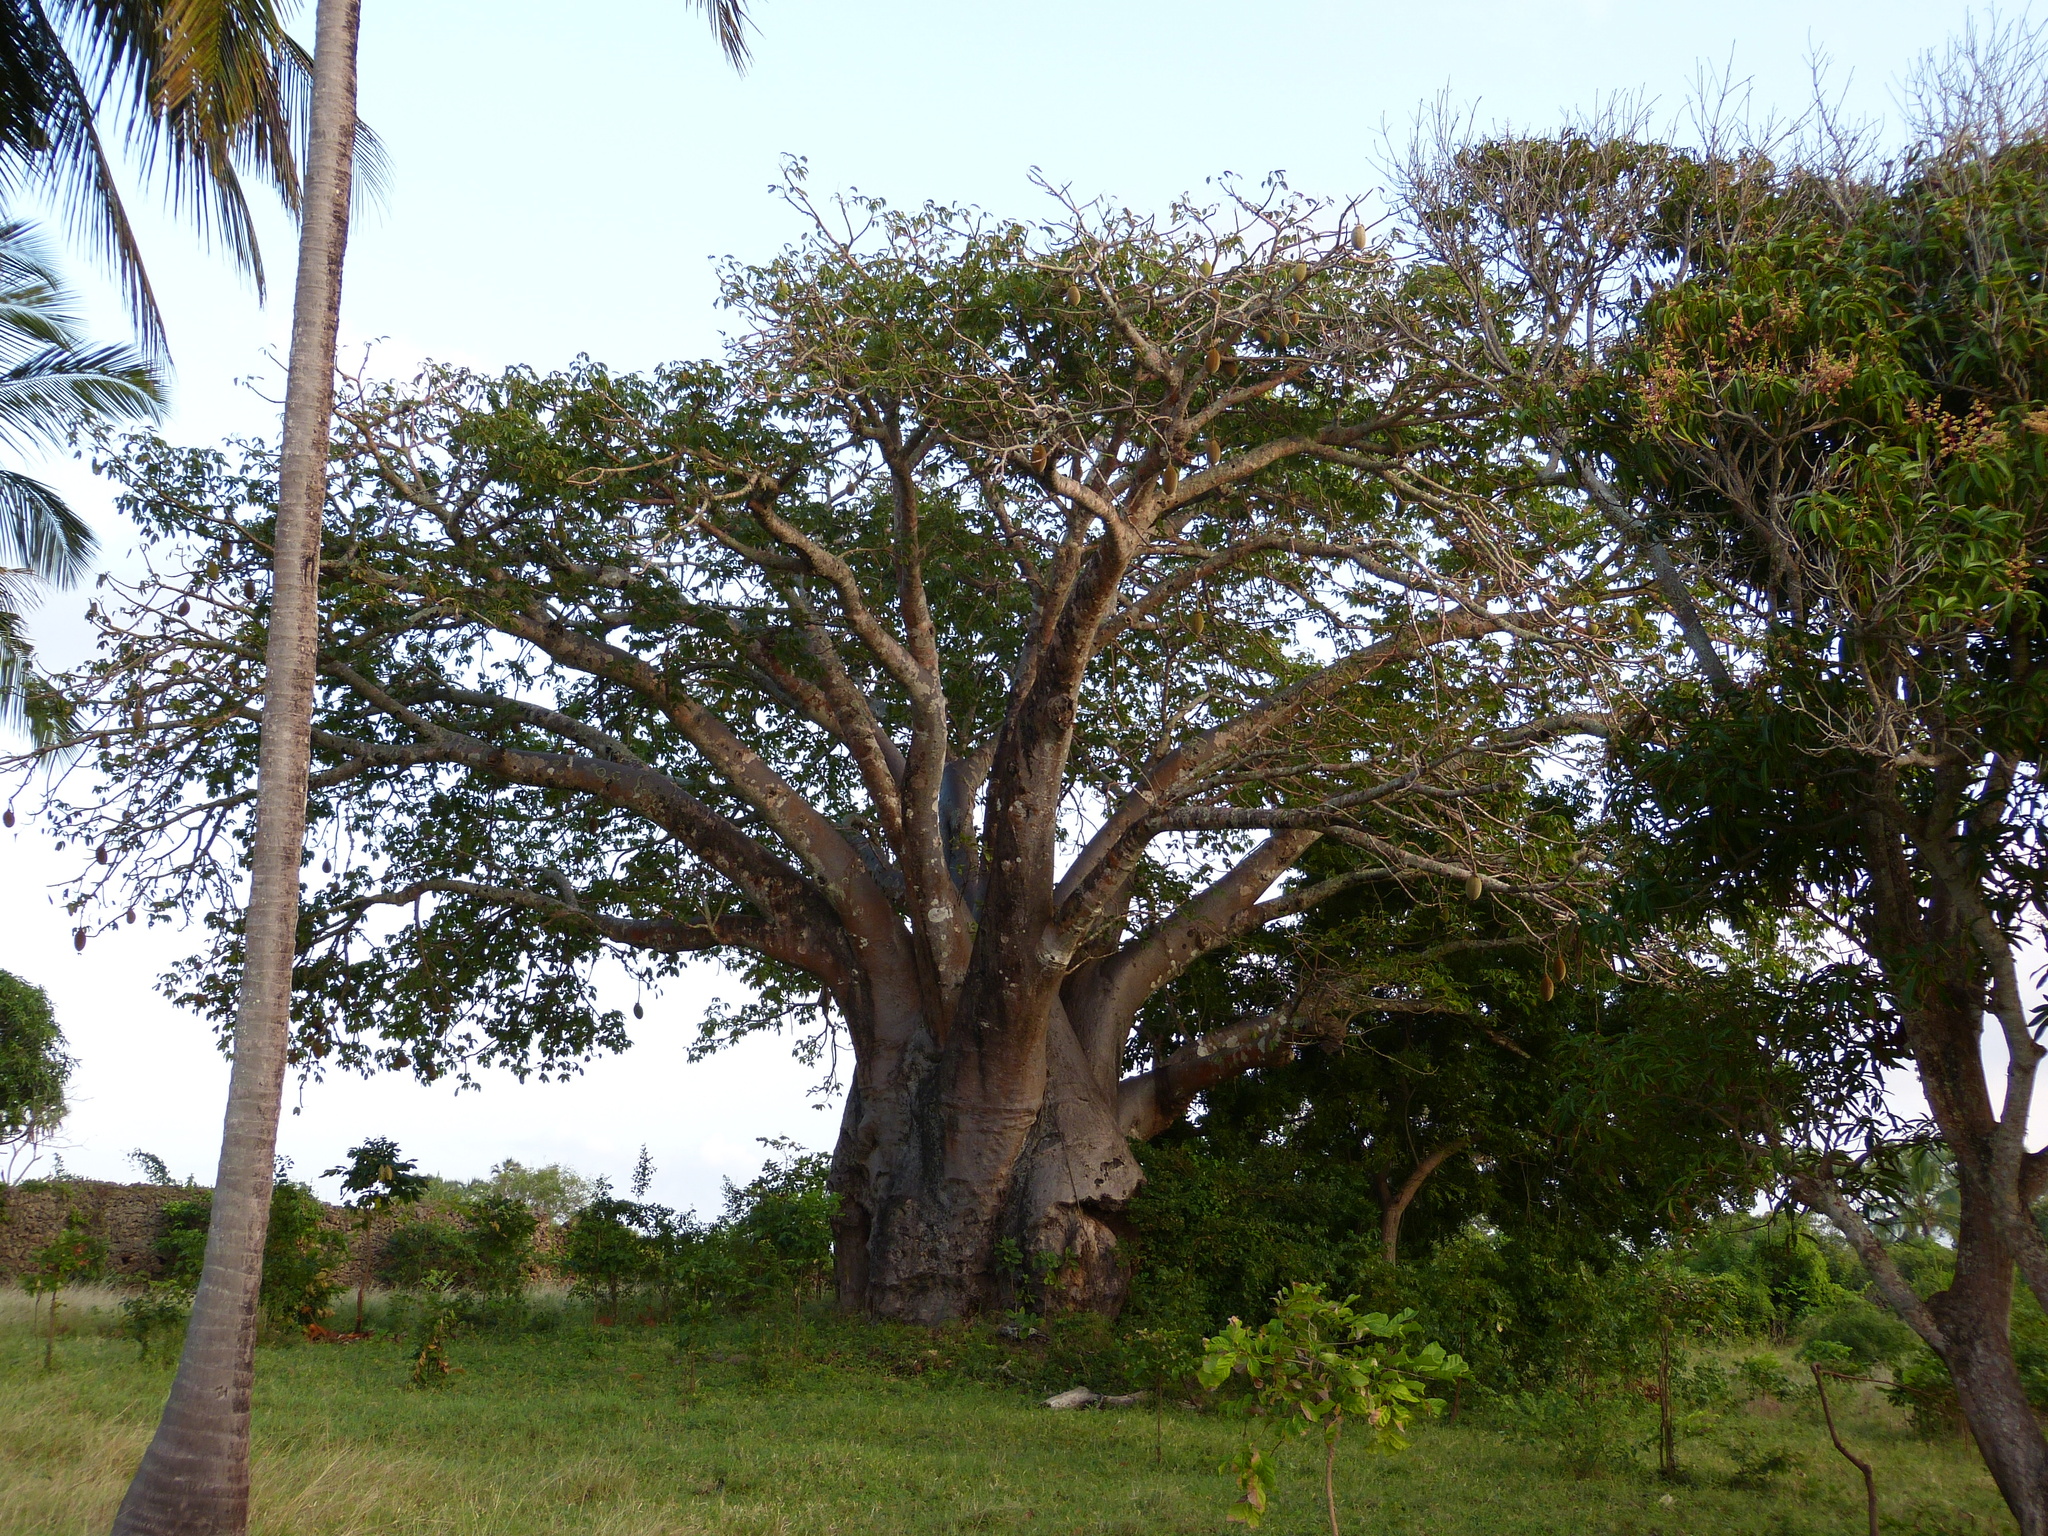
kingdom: Plantae
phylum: Tracheophyta
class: Magnoliopsida
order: Malvales
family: Malvaceae
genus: Adansonia
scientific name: Adansonia digitata
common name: Dead-rat-tree
